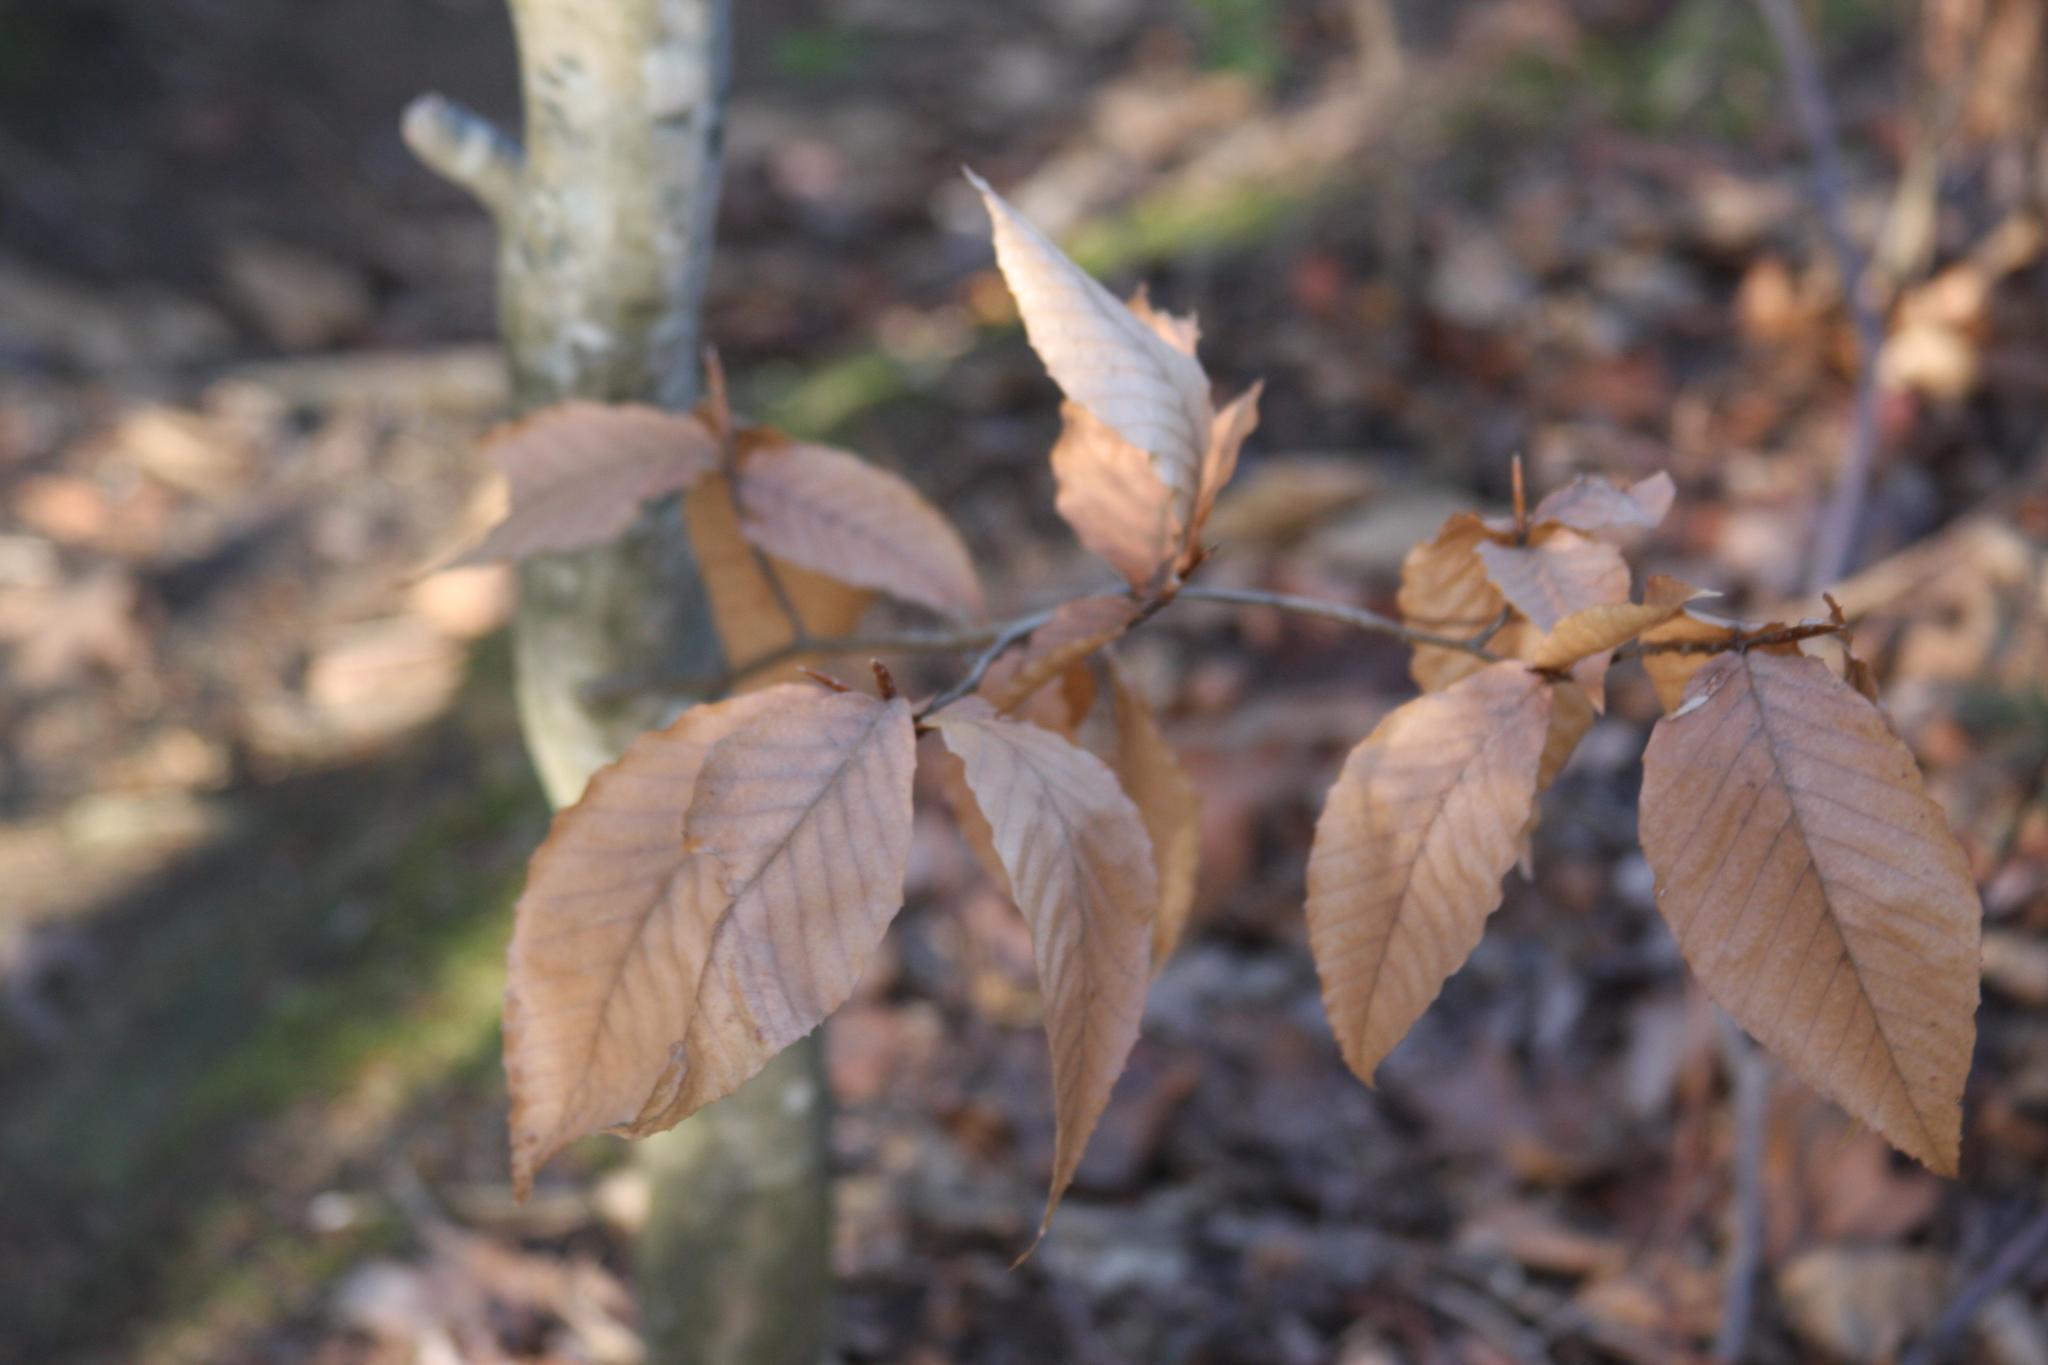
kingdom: Plantae
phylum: Tracheophyta
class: Magnoliopsida
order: Fagales
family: Fagaceae
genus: Fagus
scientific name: Fagus grandifolia
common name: American beech
